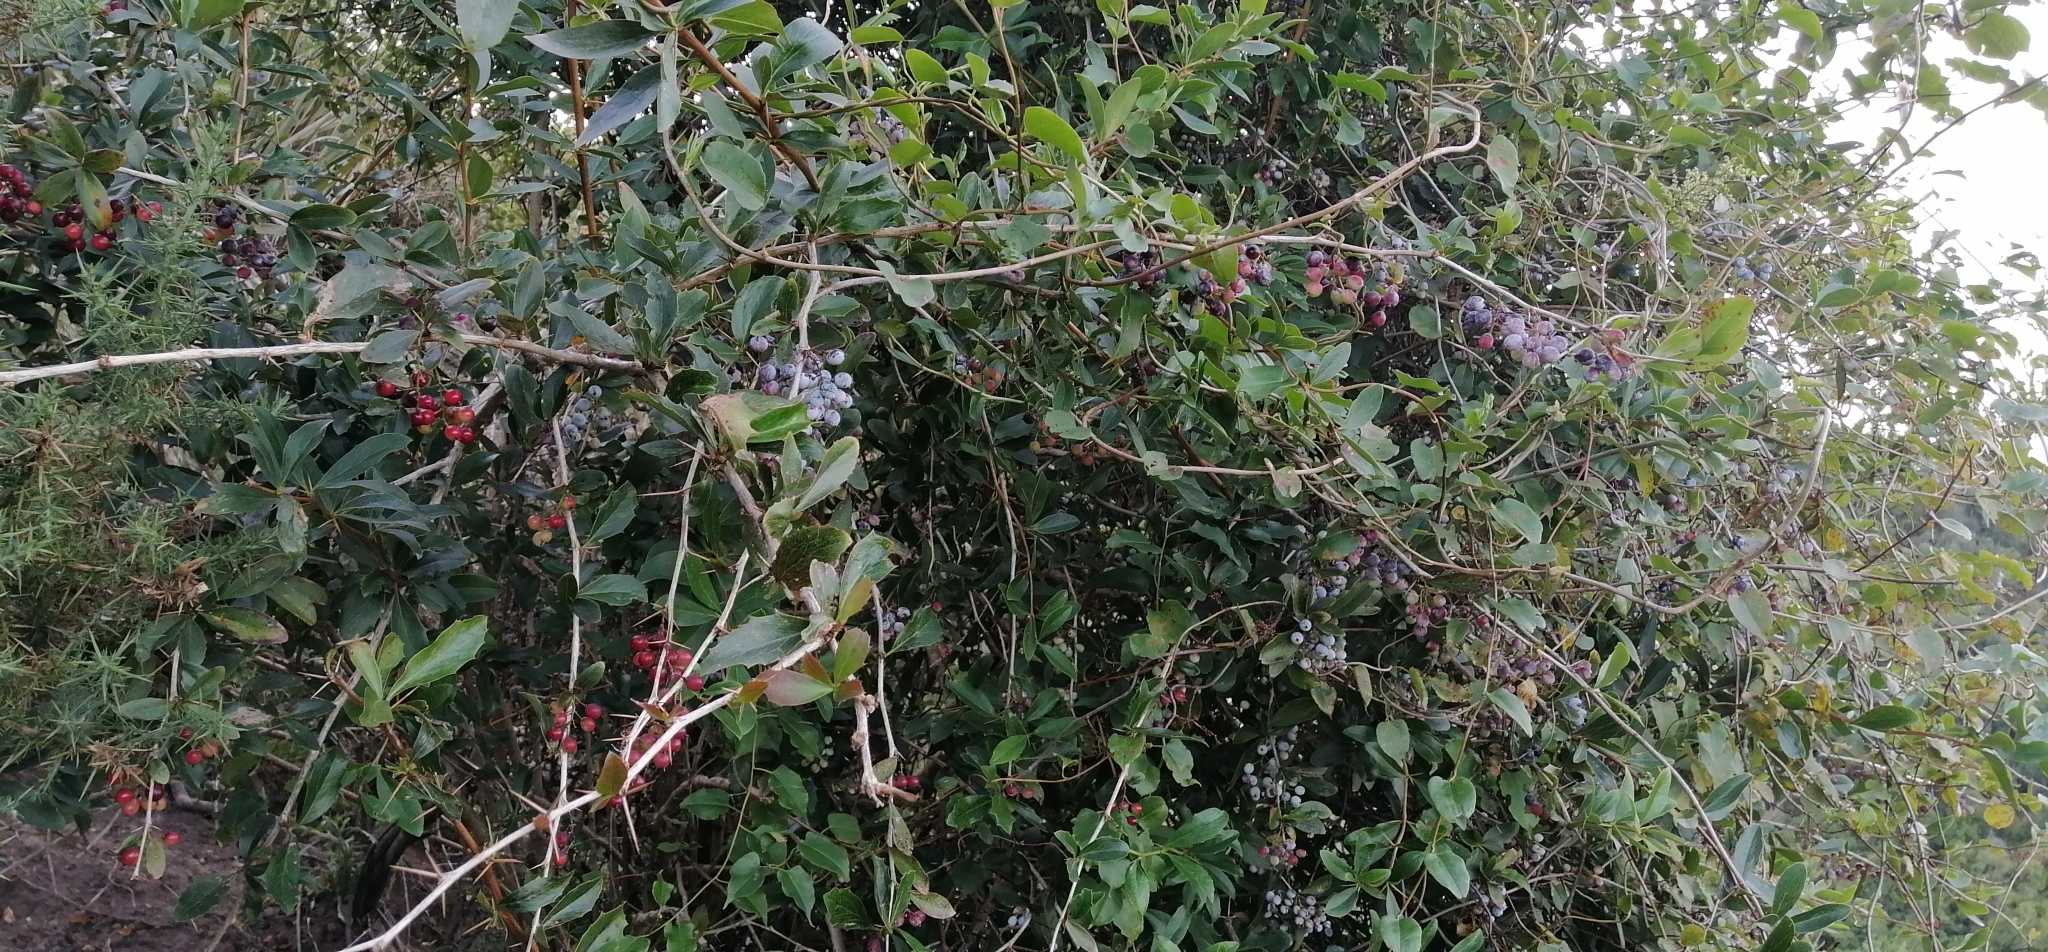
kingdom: Plantae
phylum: Tracheophyta
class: Magnoliopsida
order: Ranunculales
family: Berberidaceae
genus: Berberis
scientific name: Berberis glaucocarpa
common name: Great barberry
